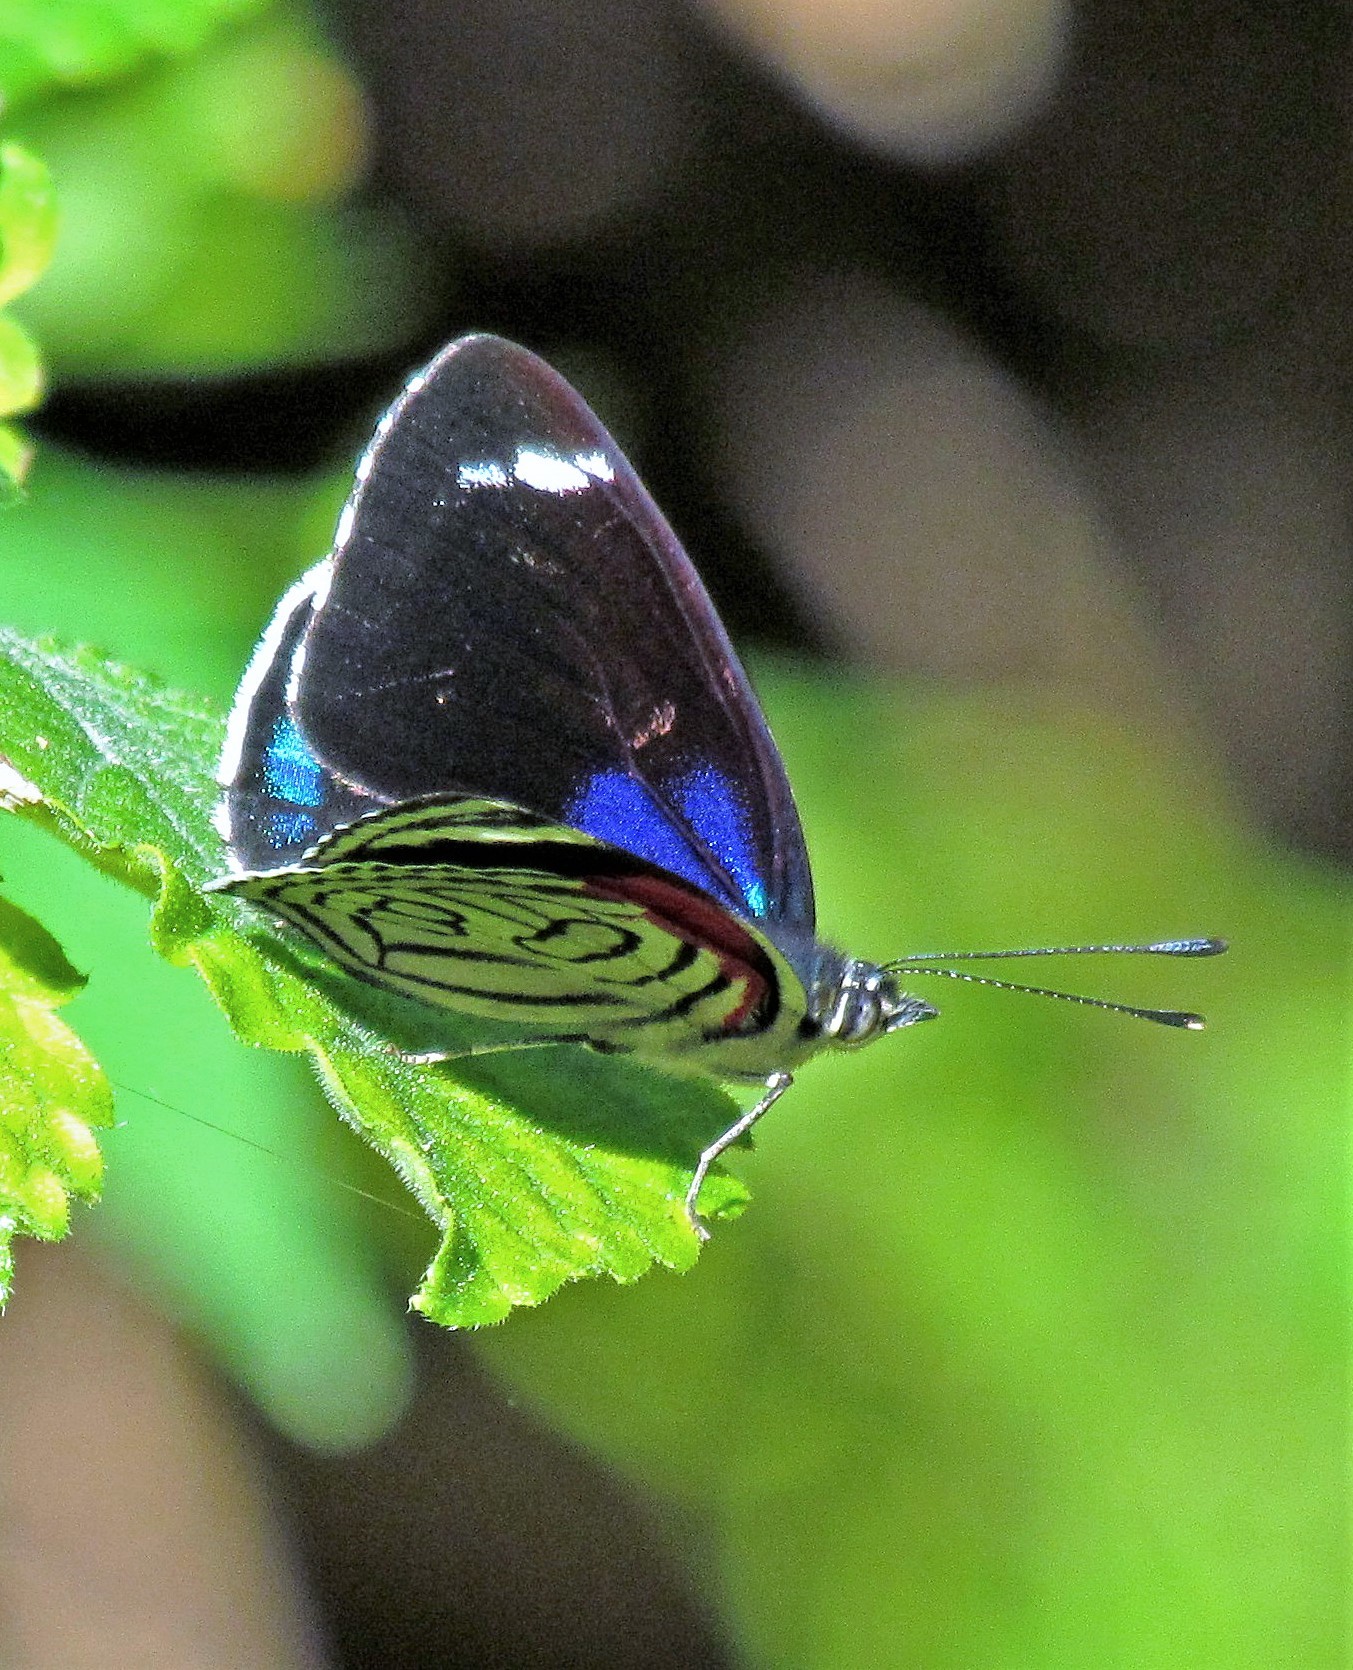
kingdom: Animalia
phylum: Arthropoda
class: Insecta
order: Lepidoptera
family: Nymphalidae
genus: Diaethria
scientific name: Diaethria candrena
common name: Number eighty
